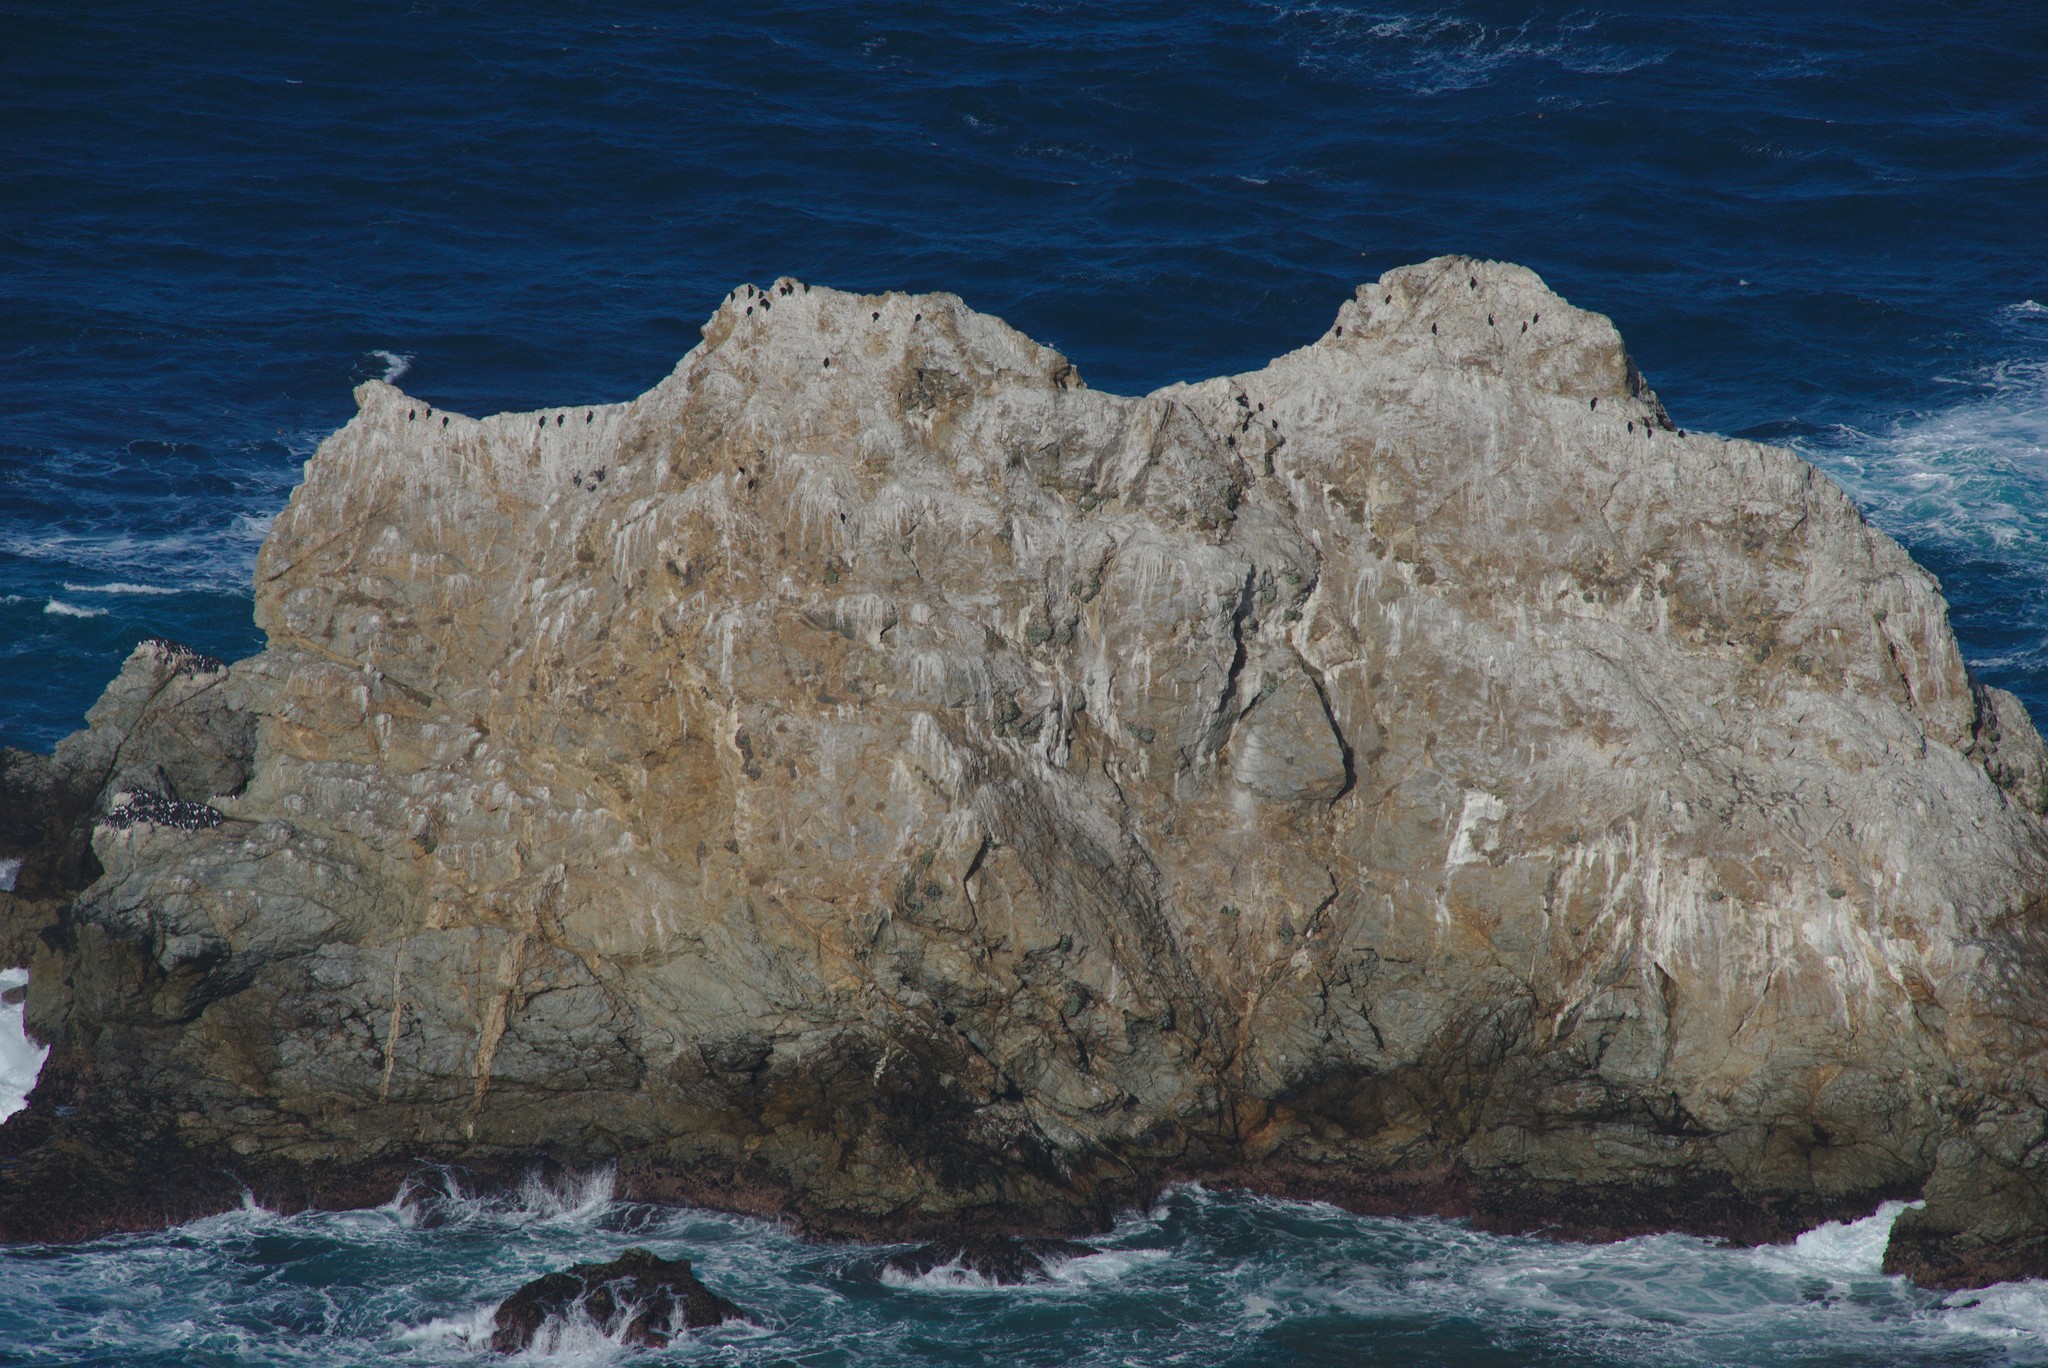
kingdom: Animalia
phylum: Chordata
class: Aves
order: Pelecaniformes
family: Pelecanidae
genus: Pelecanus
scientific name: Pelecanus occidentalis
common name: Brown pelican
